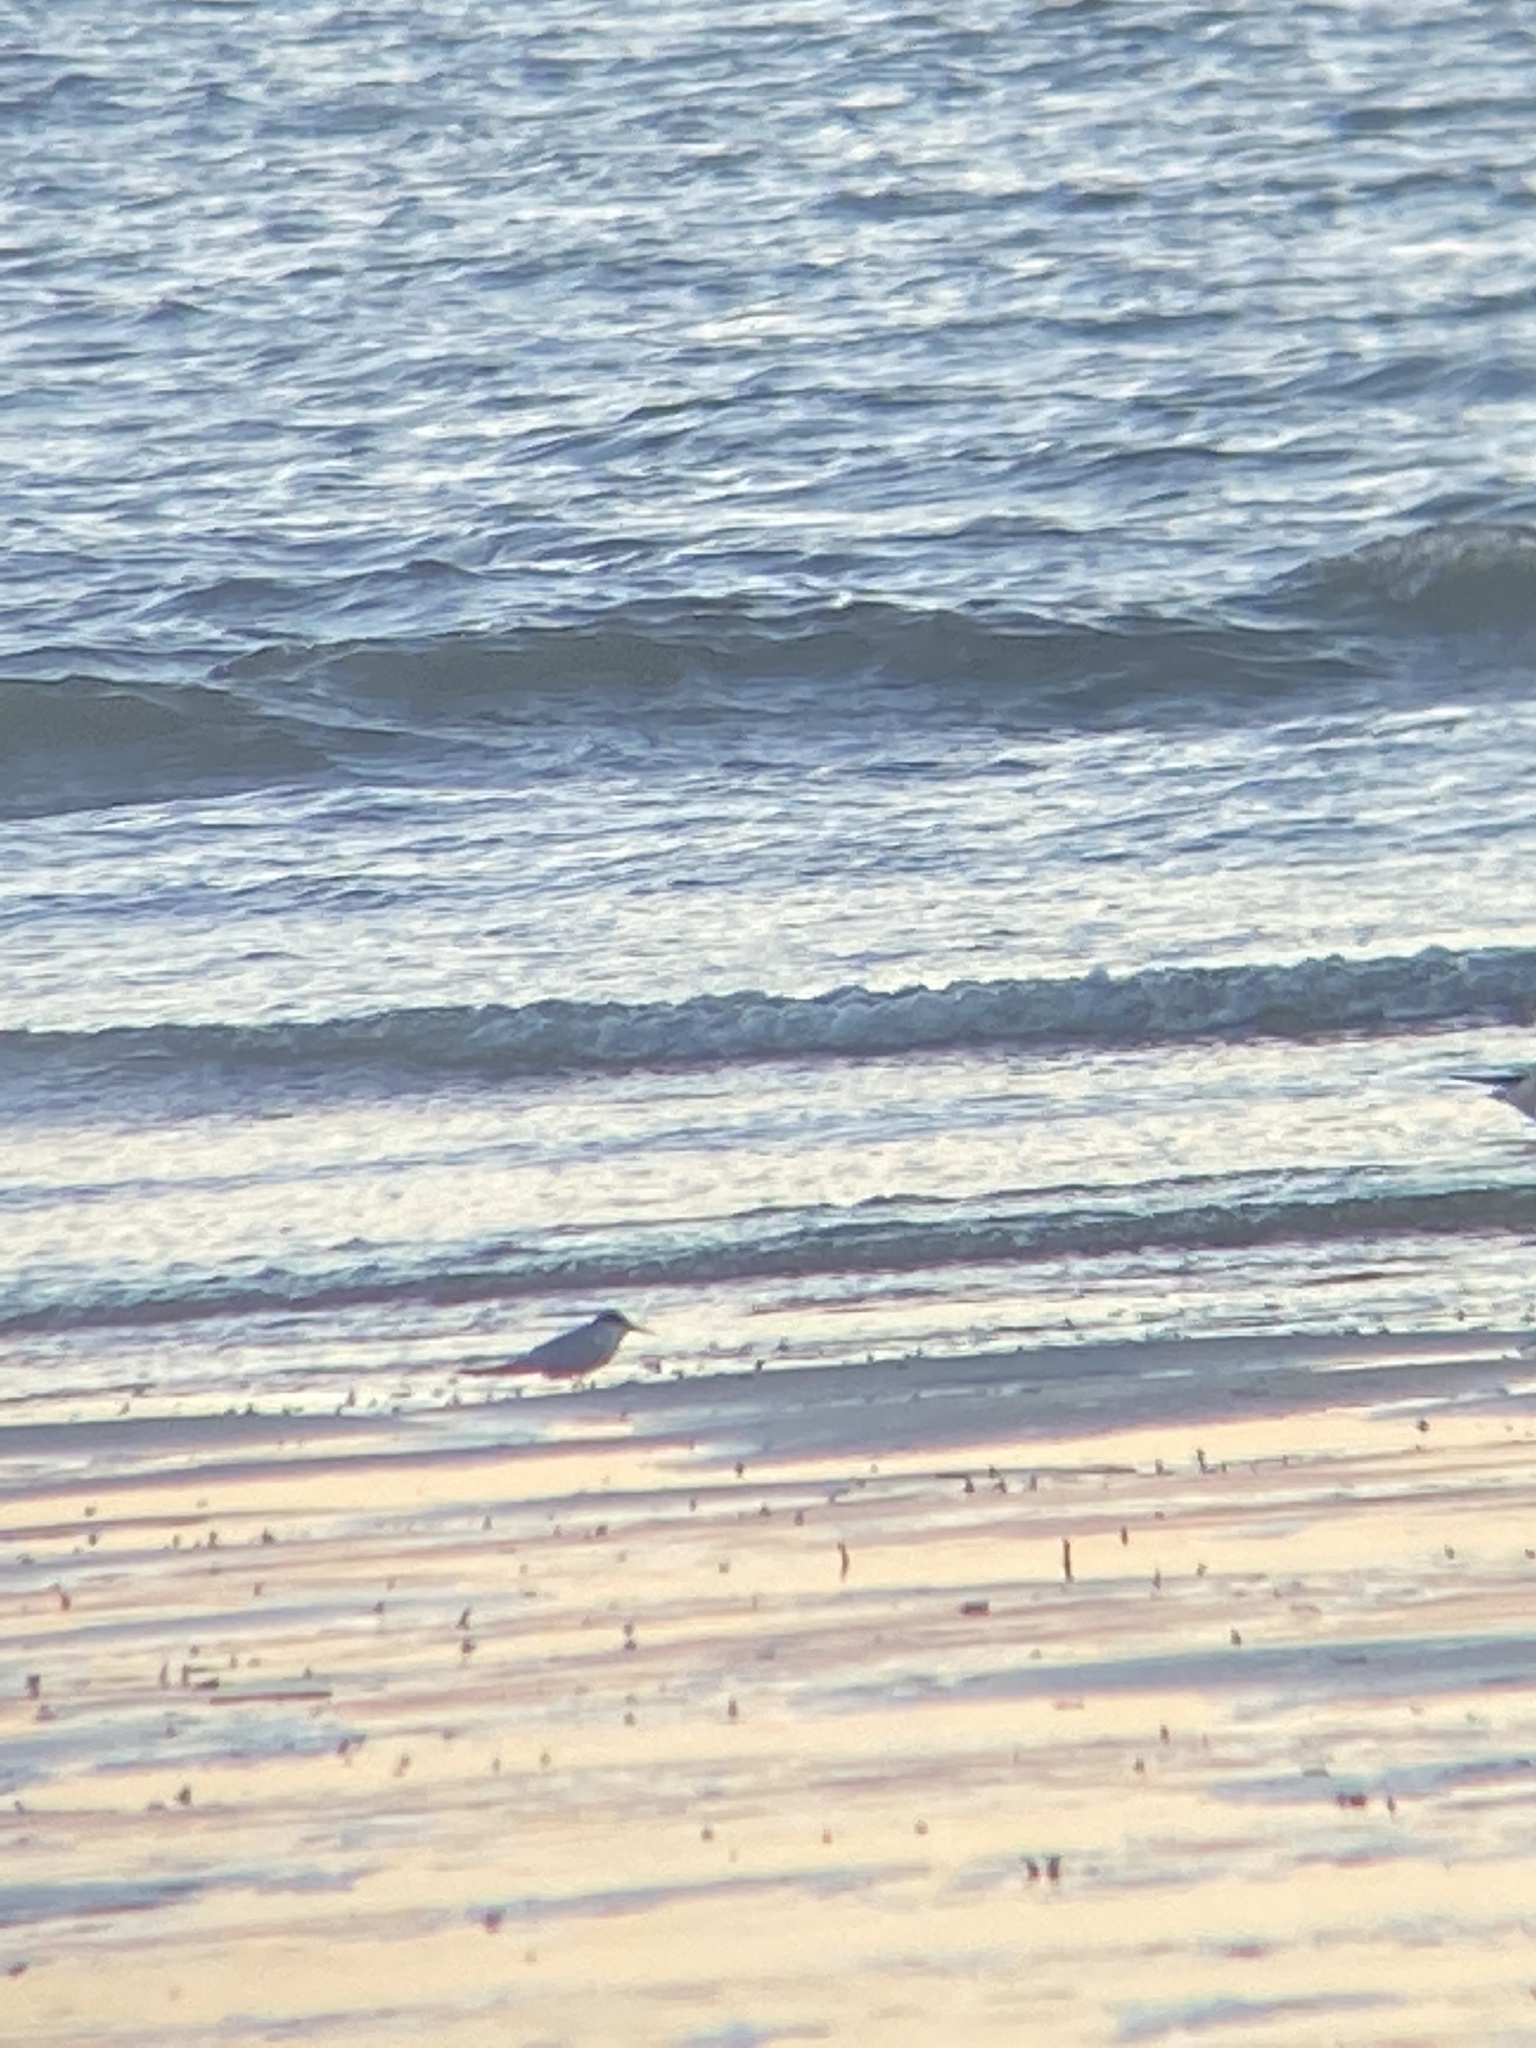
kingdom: Animalia
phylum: Chordata
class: Aves
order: Charadriiformes
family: Laridae
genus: Sternula
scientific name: Sternula albifrons
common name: Little tern
